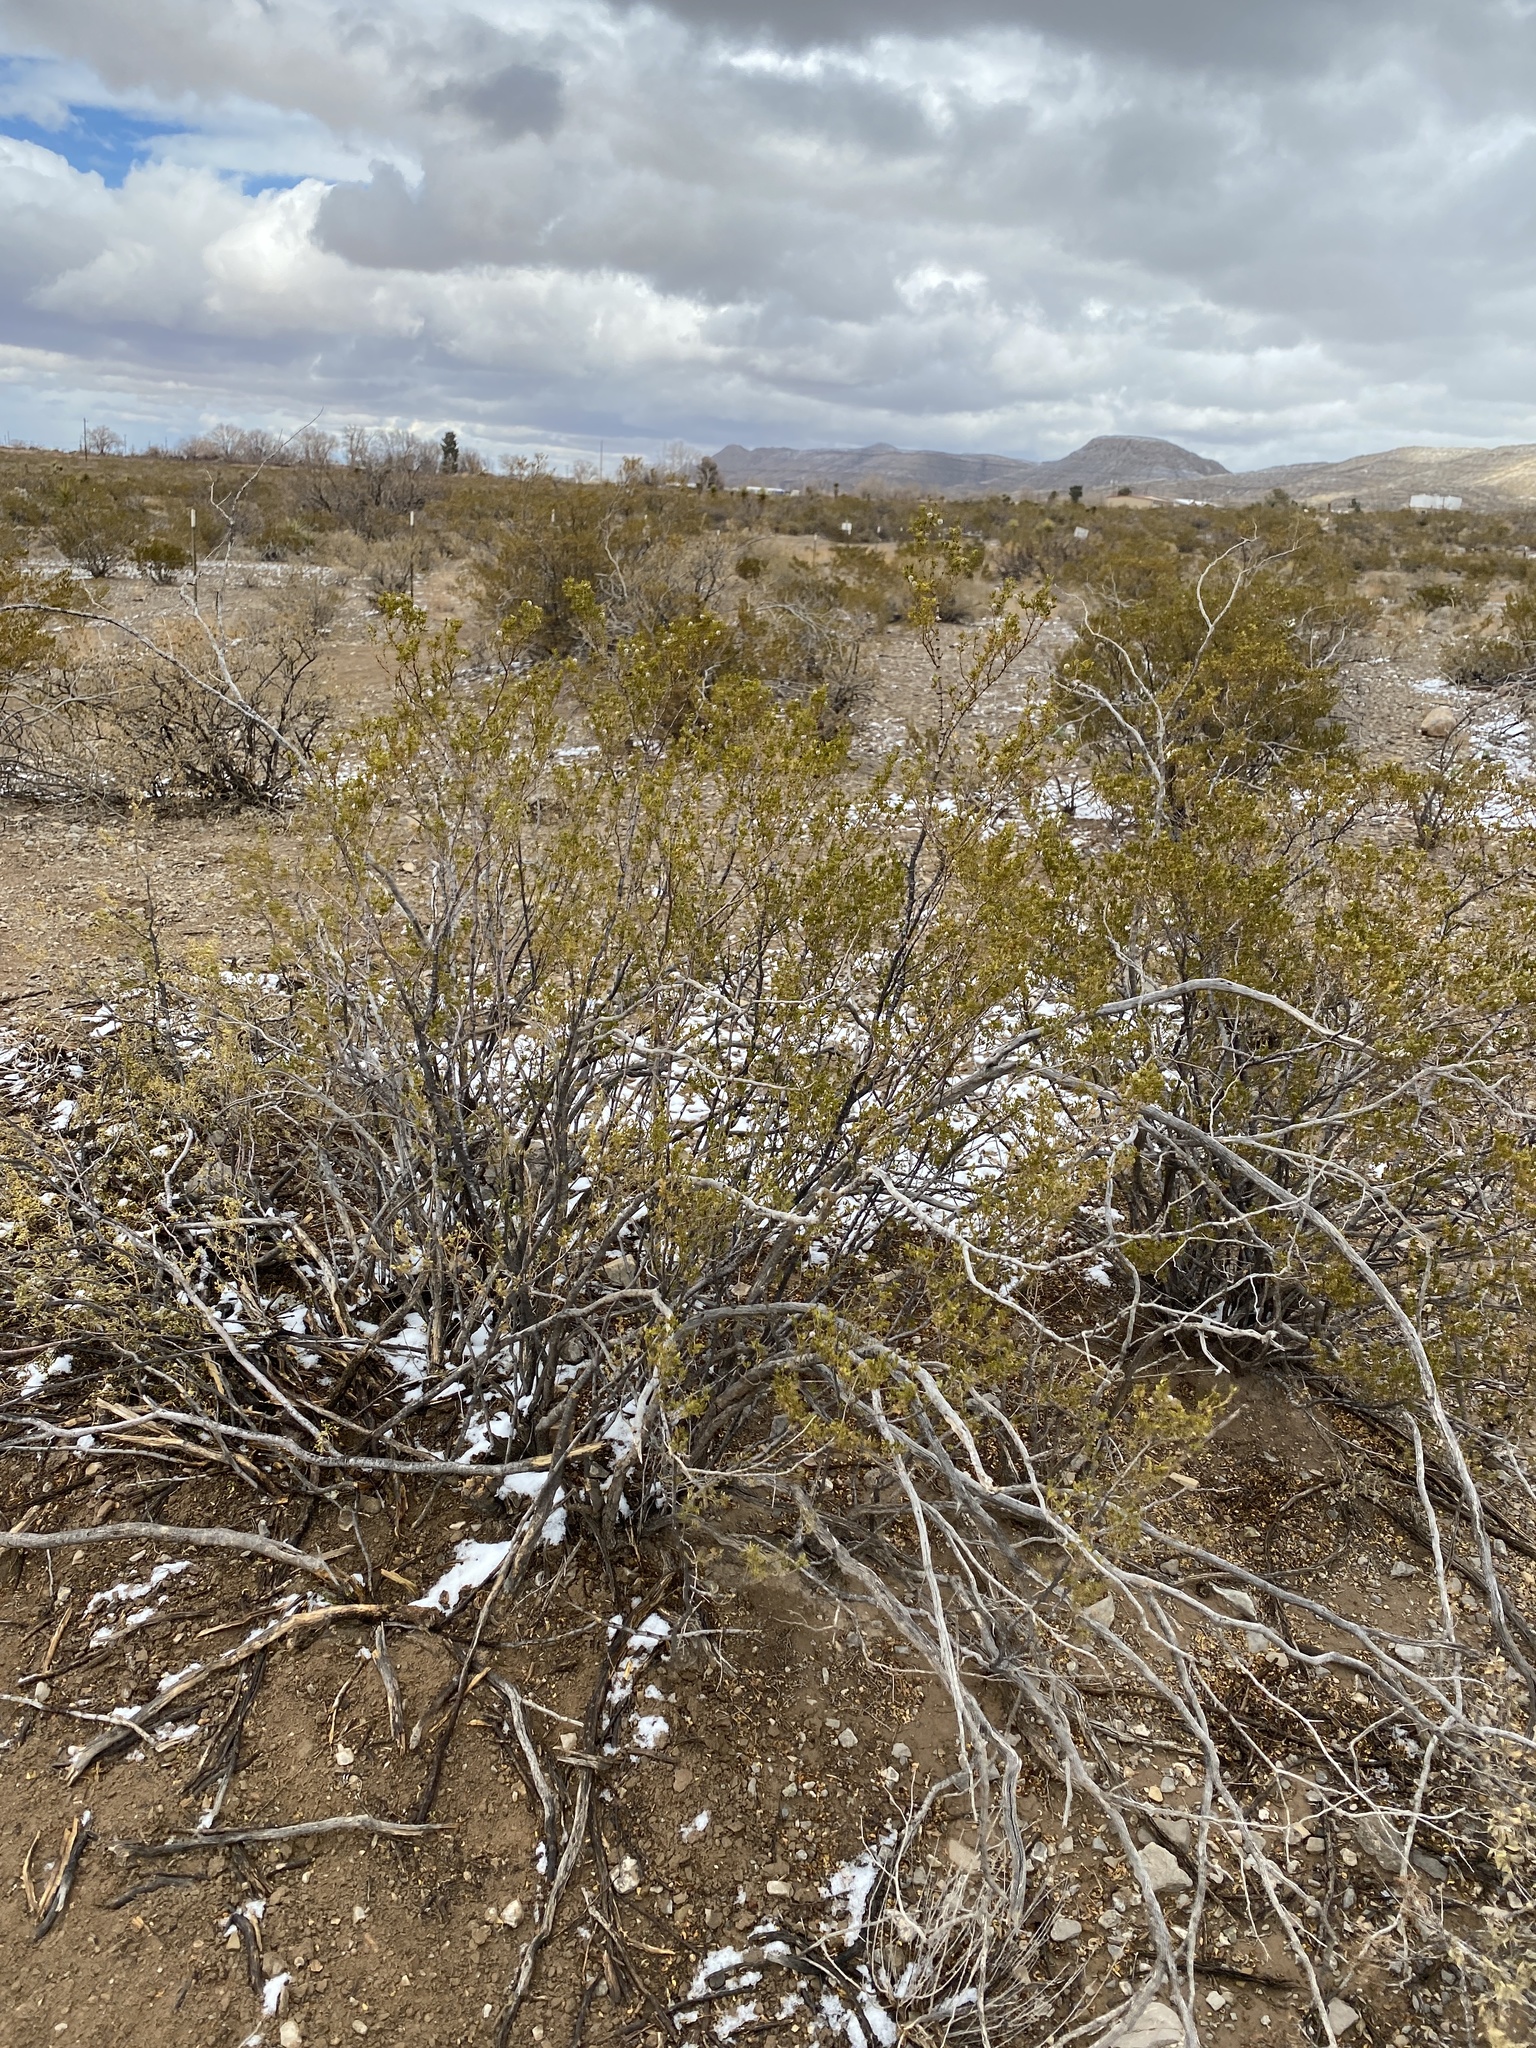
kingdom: Plantae
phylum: Tracheophyta
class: Magnoliopsida
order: Zygophyllales
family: Zygophyllaceae
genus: Larrea
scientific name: Larrea tridentata
